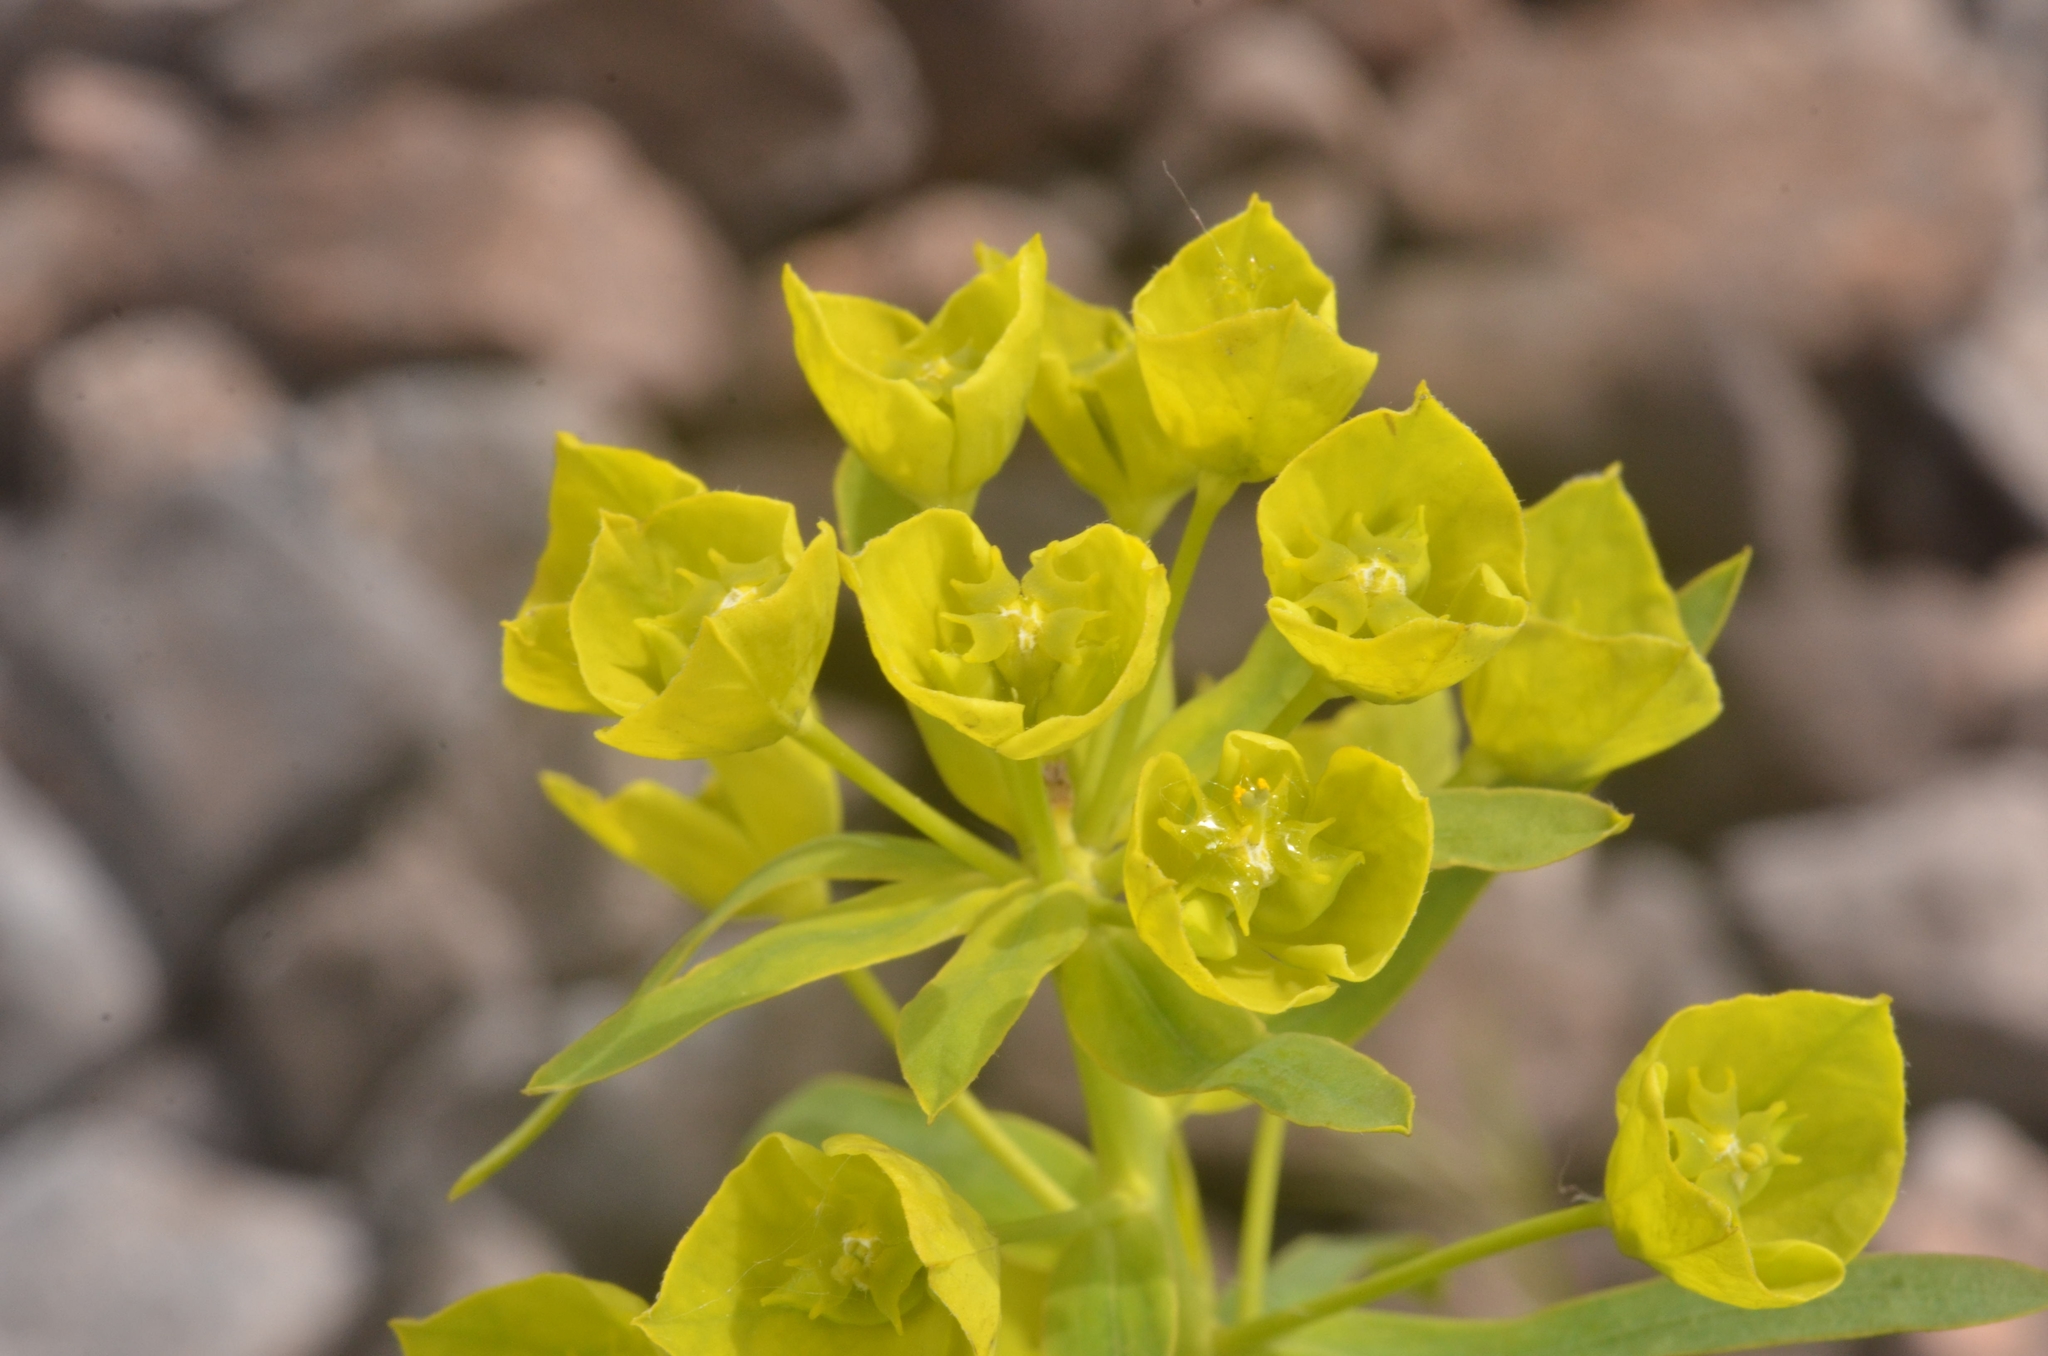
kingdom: Plantae
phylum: Tracheophyta
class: Magnoliopsida
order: Malpighiales
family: Euphorbiaceae
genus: Euphorbia
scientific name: Euphorbia virgata
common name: Leafy spurge
